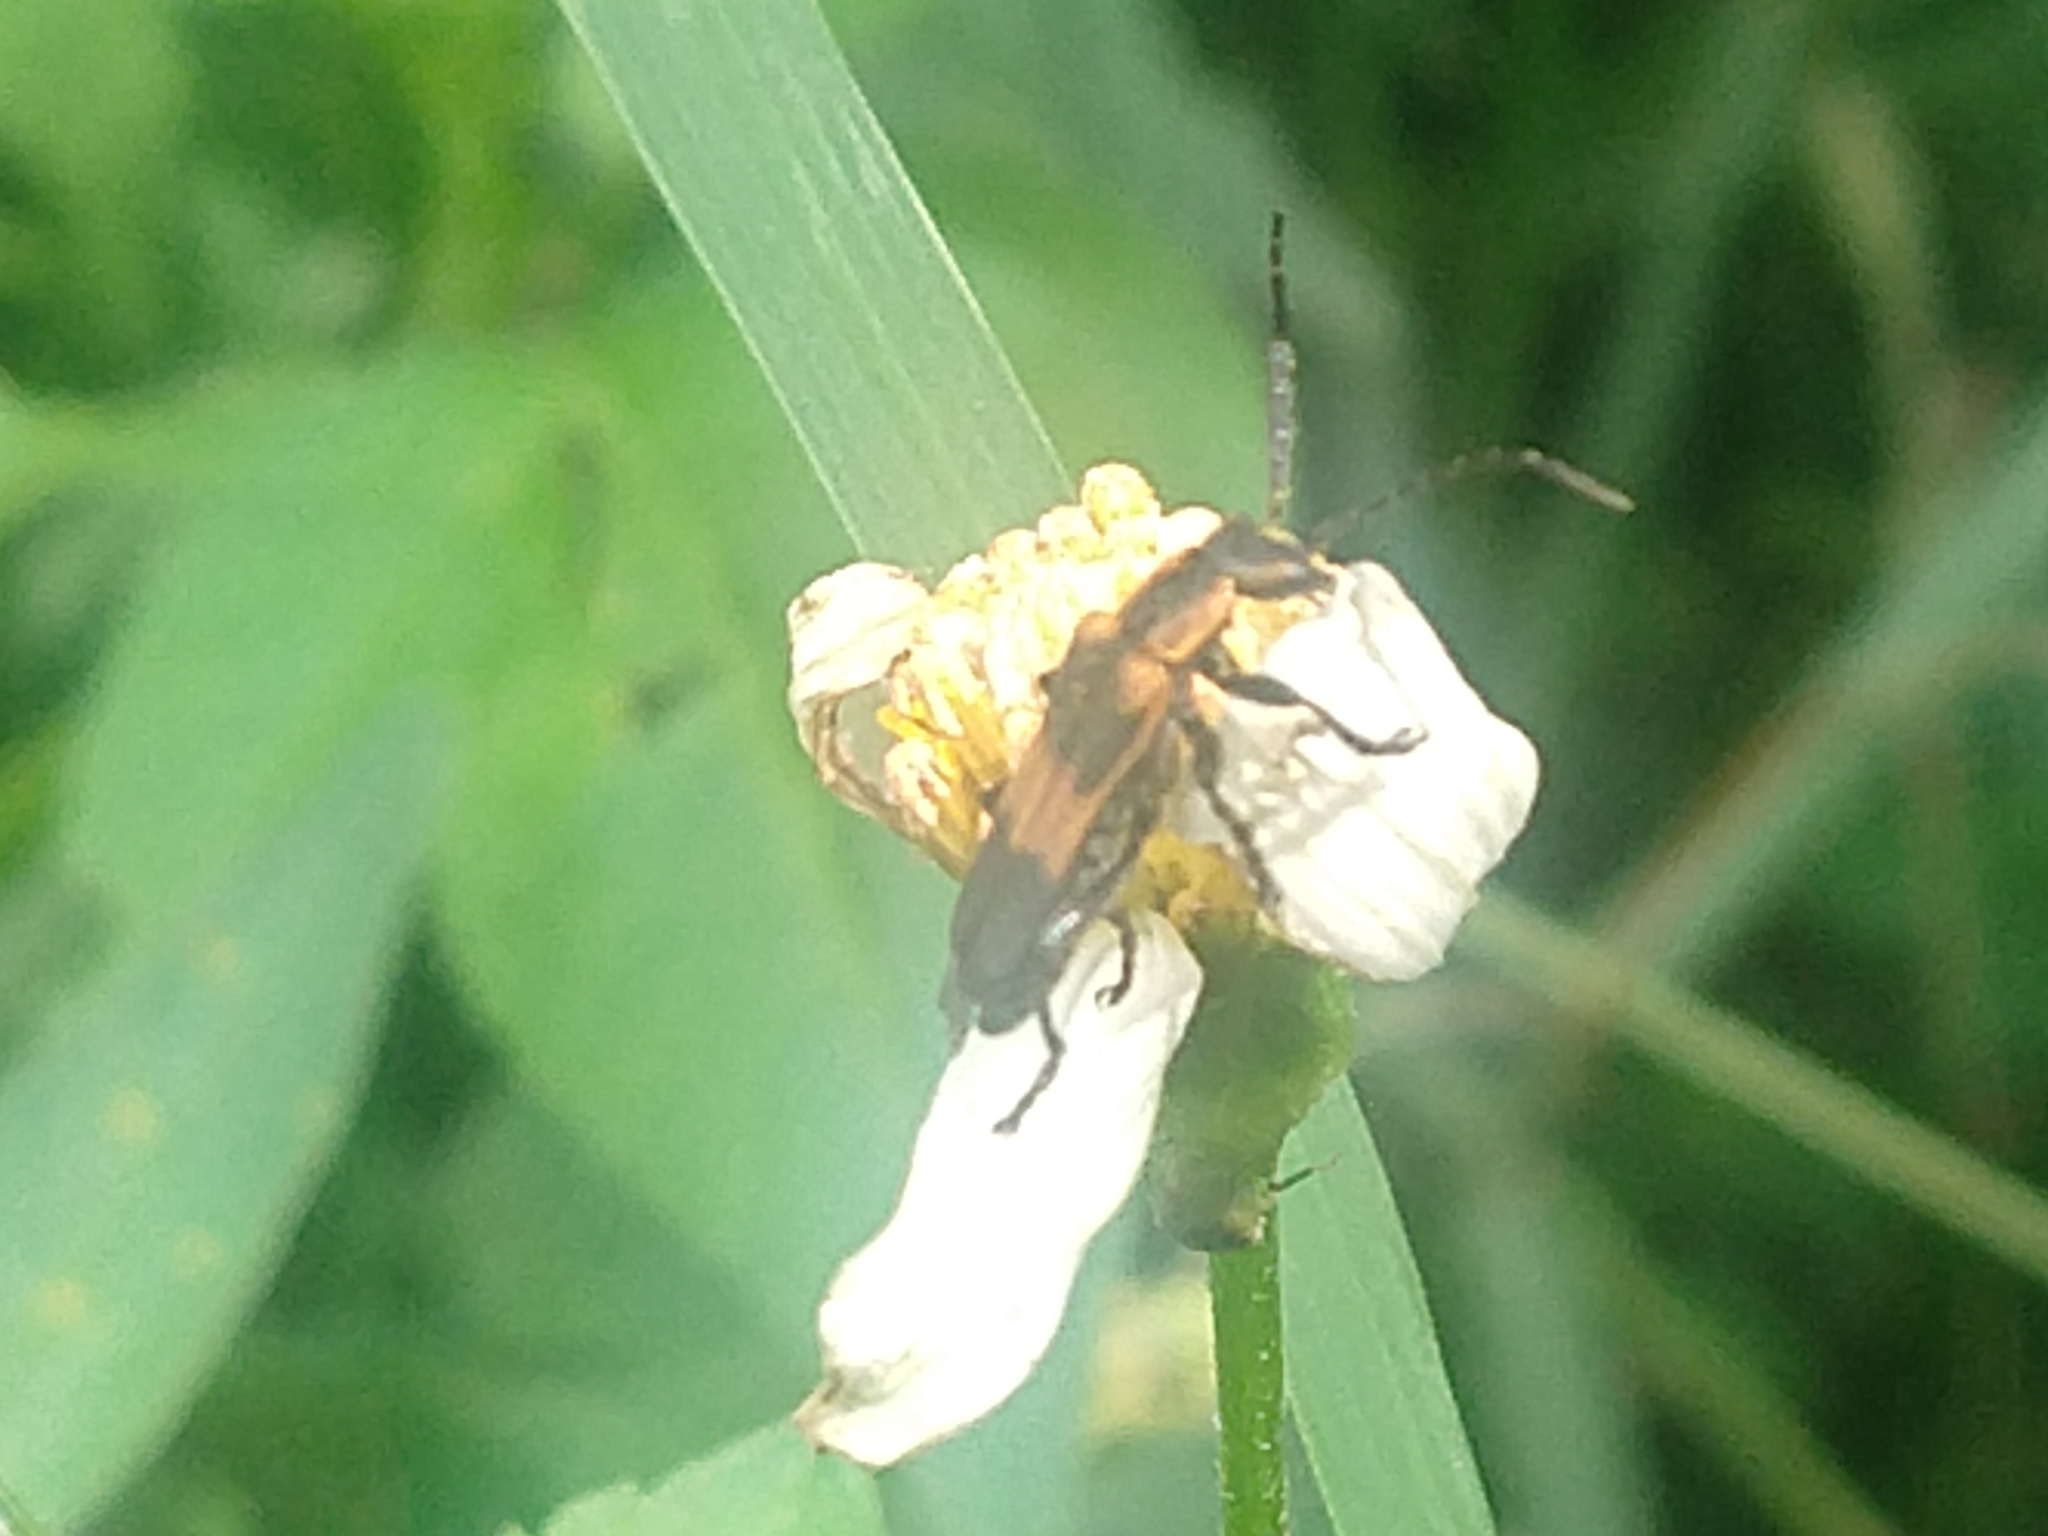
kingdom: Animalia
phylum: Arthropoda
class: Insecta
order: Coleoptera
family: Cantharidae
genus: Daiphron
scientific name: Daiphron proteum
